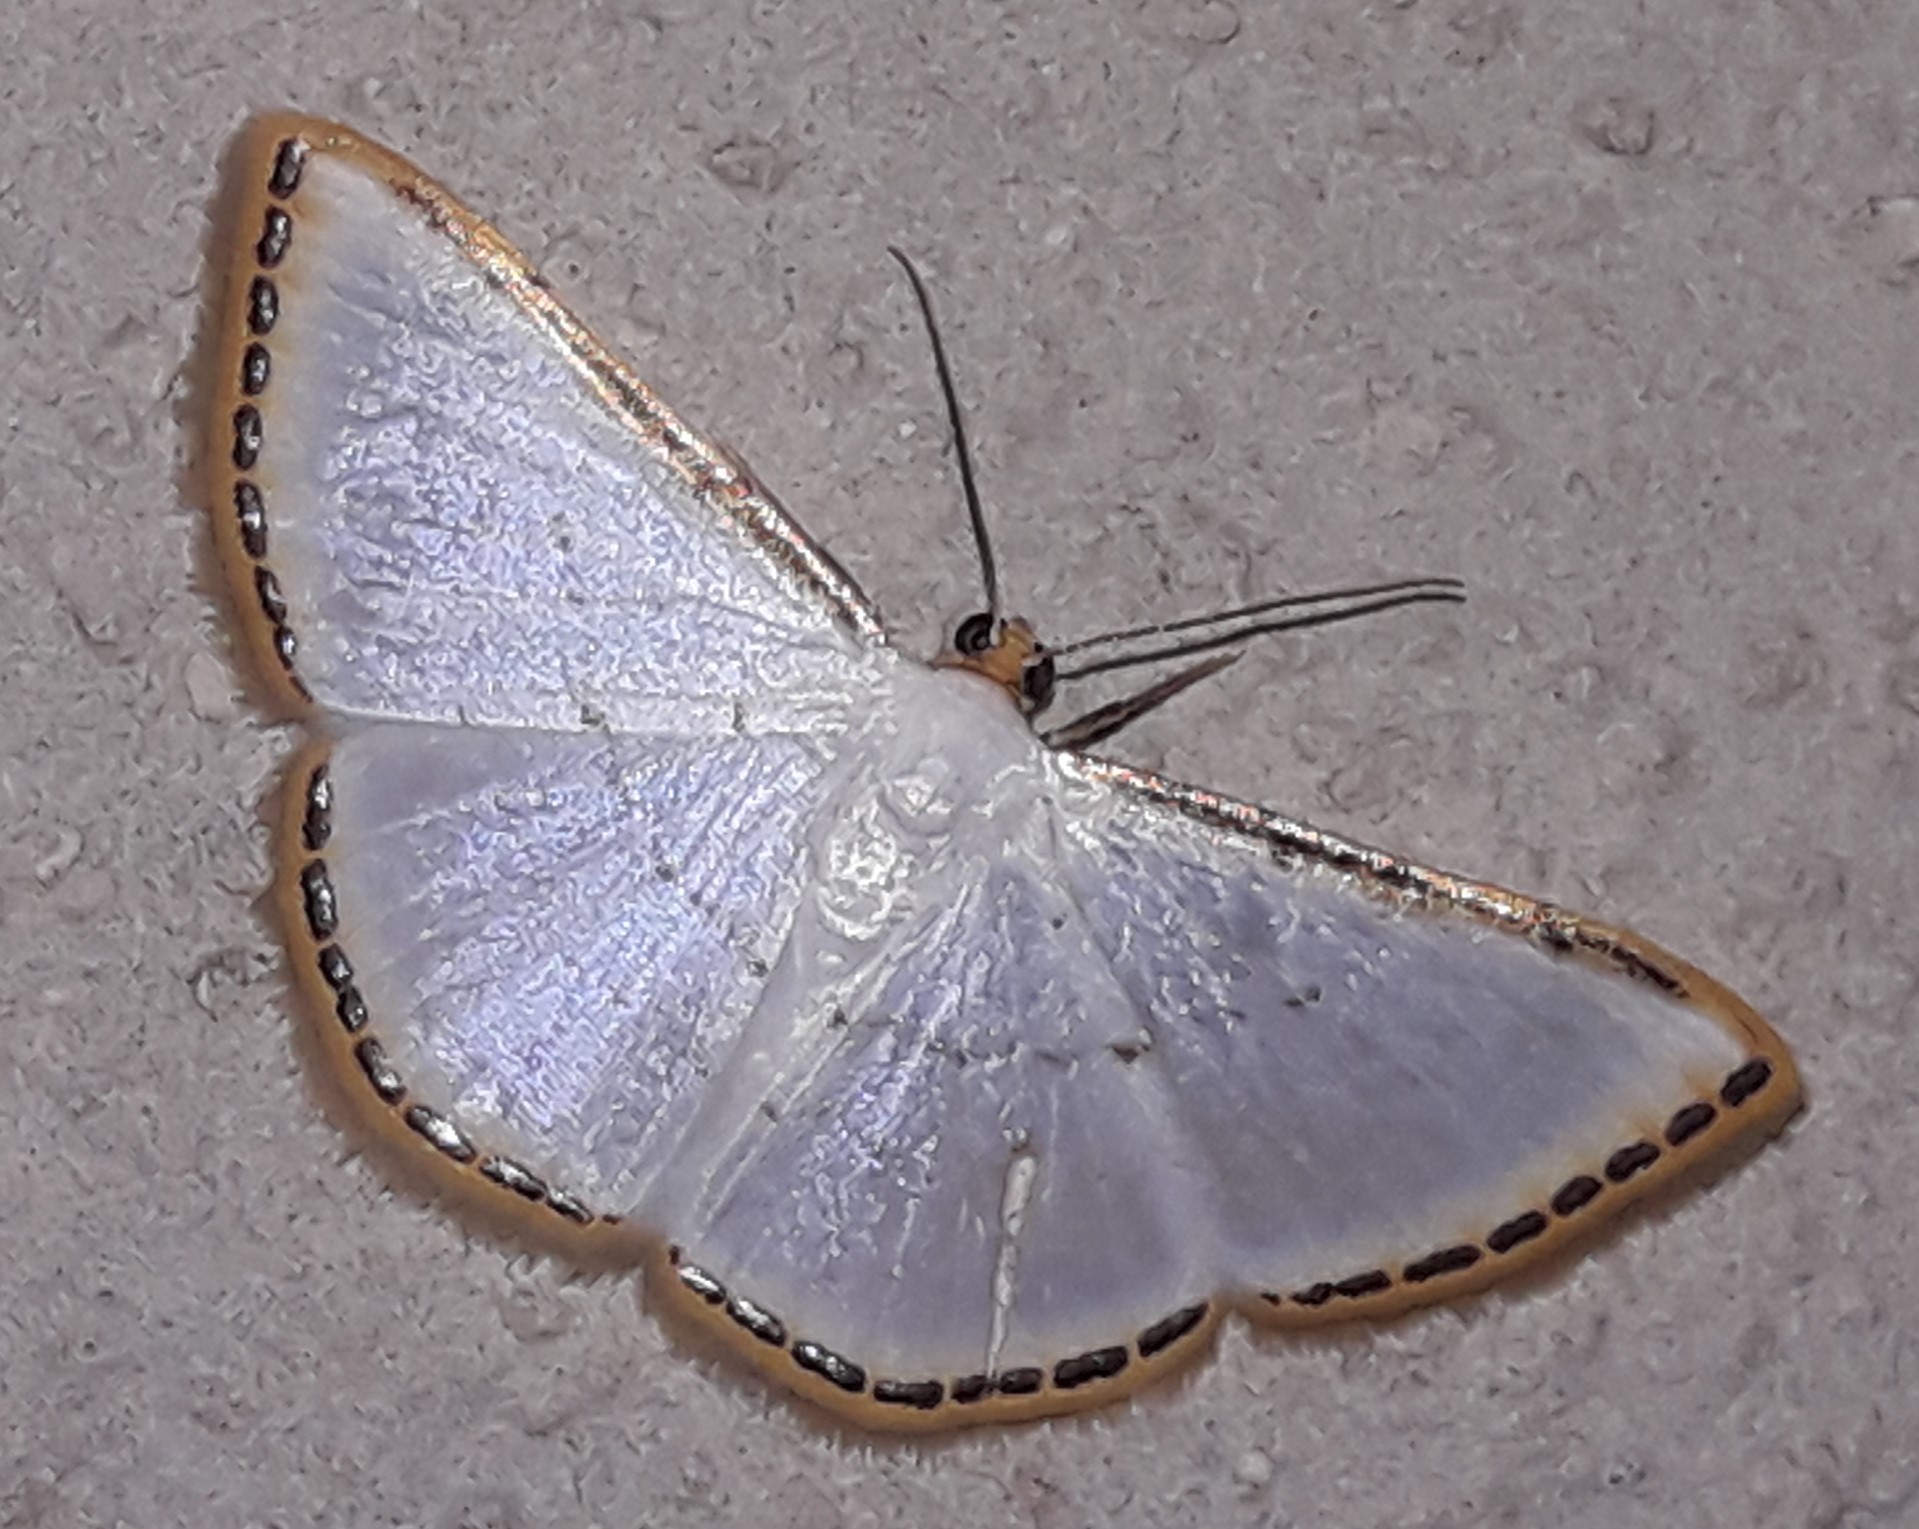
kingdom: Animalia
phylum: Arthropoda
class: Insecta
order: Lepidoptera
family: Geometridae
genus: Leuciris
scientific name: Leuciris fimbriaria
